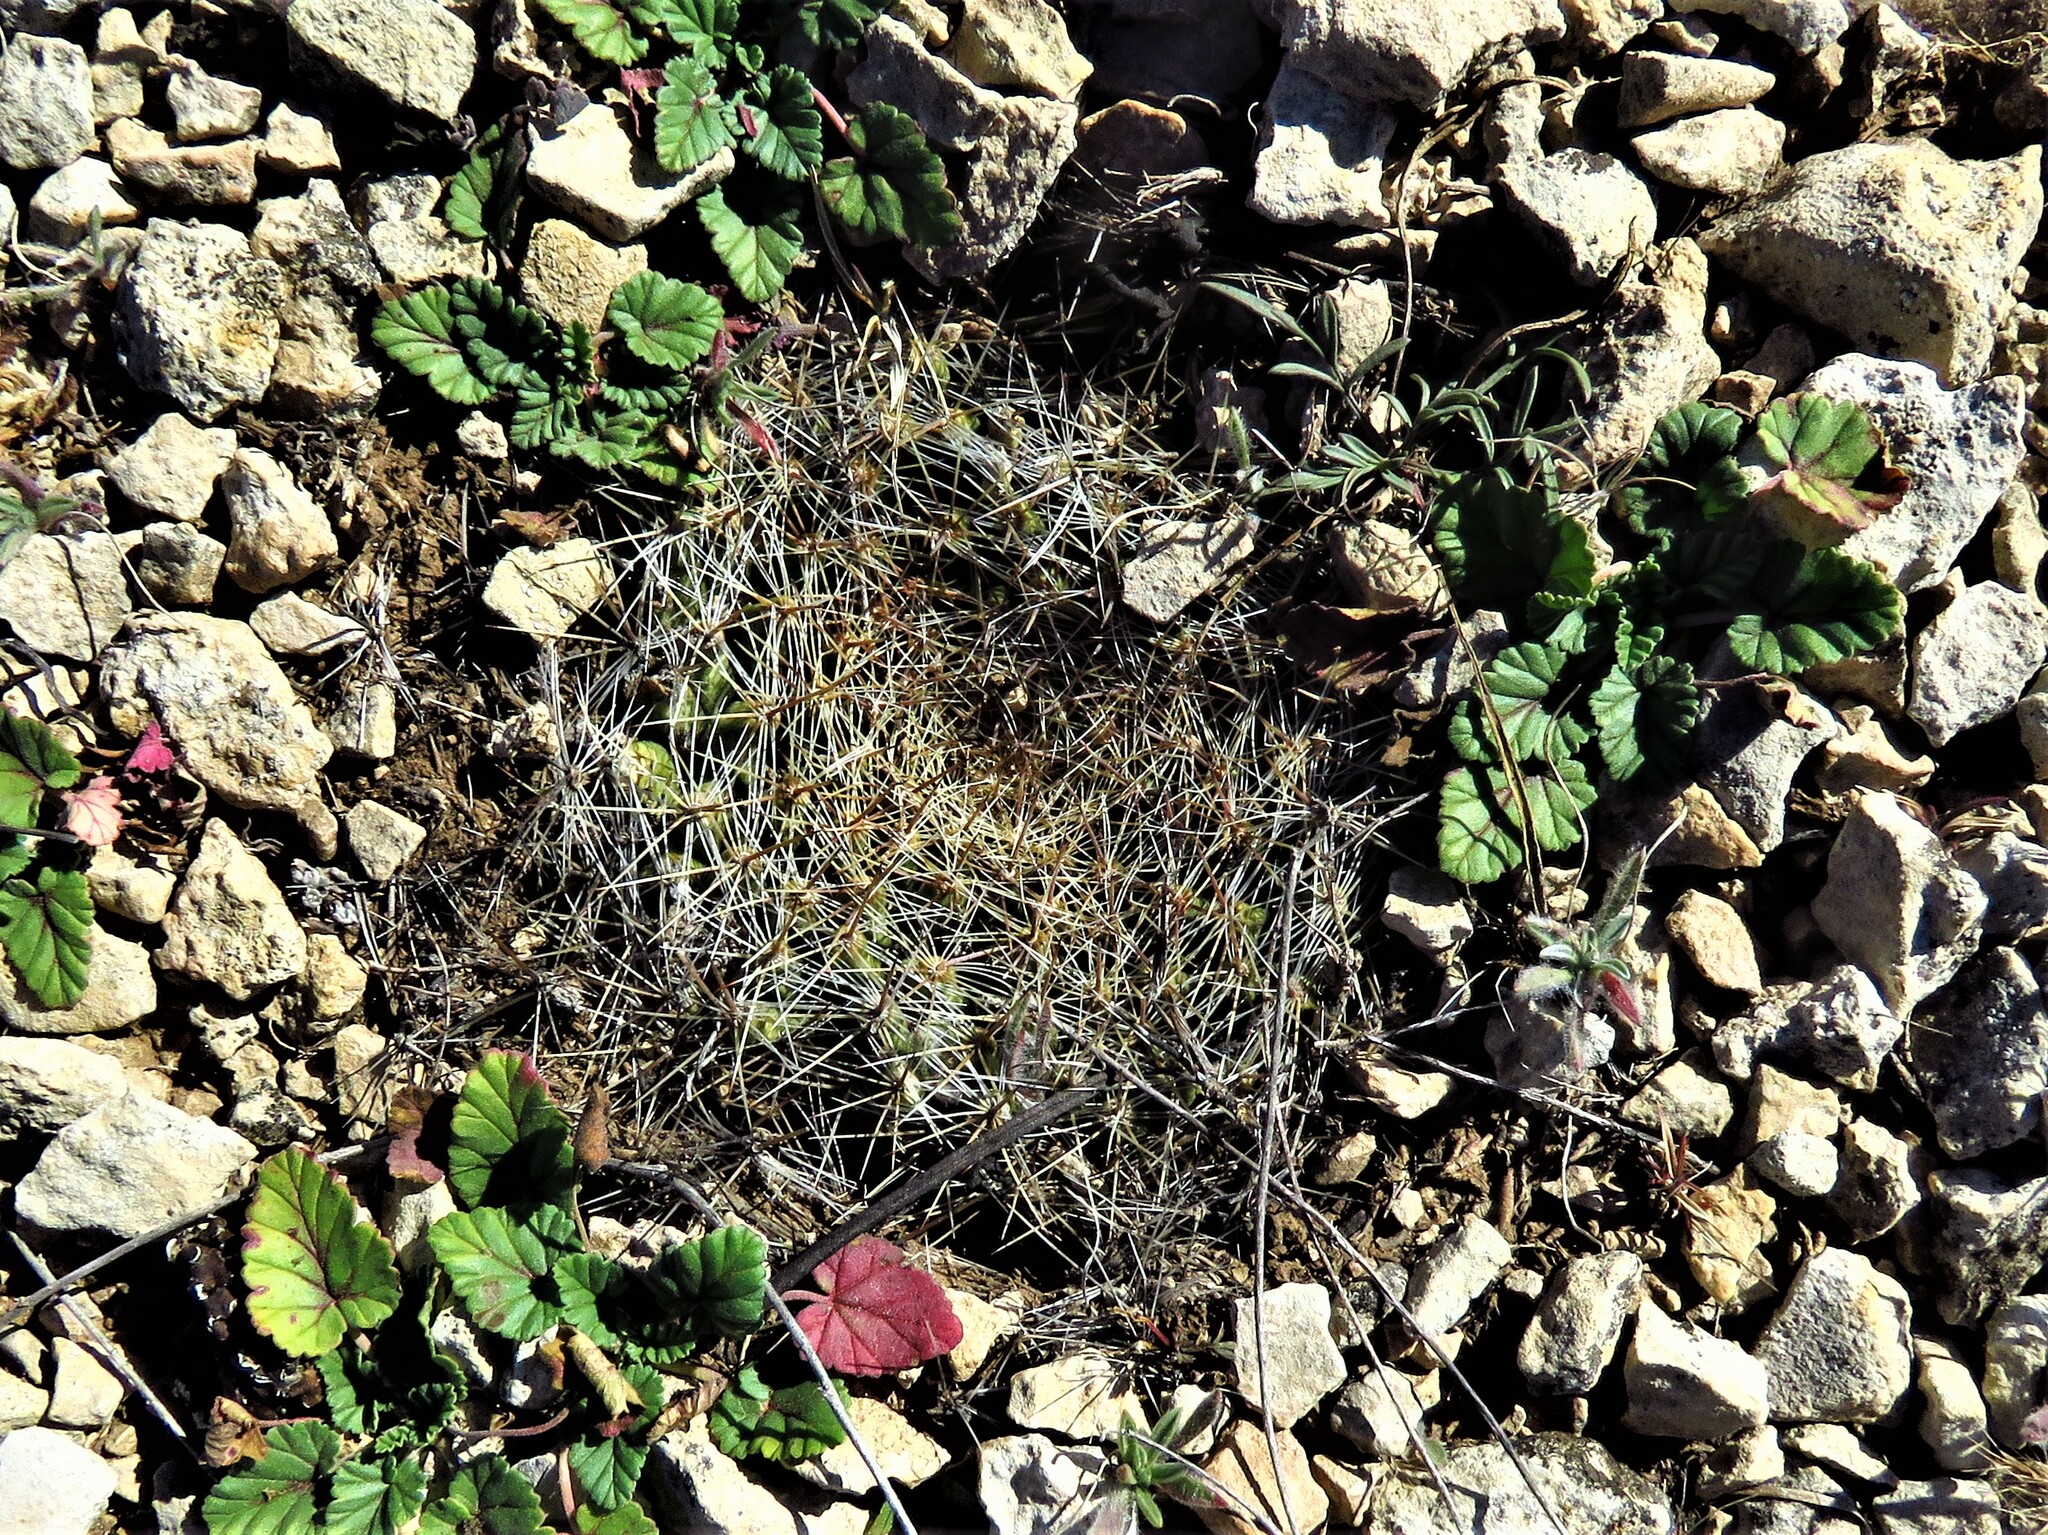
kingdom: Plantae
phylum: Tracheophyta
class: Magnoliopsida
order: Caryophyllales
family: Cactaceae
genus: Mammillaria
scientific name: Mammillaria heyderi
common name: Little nipple cactus
